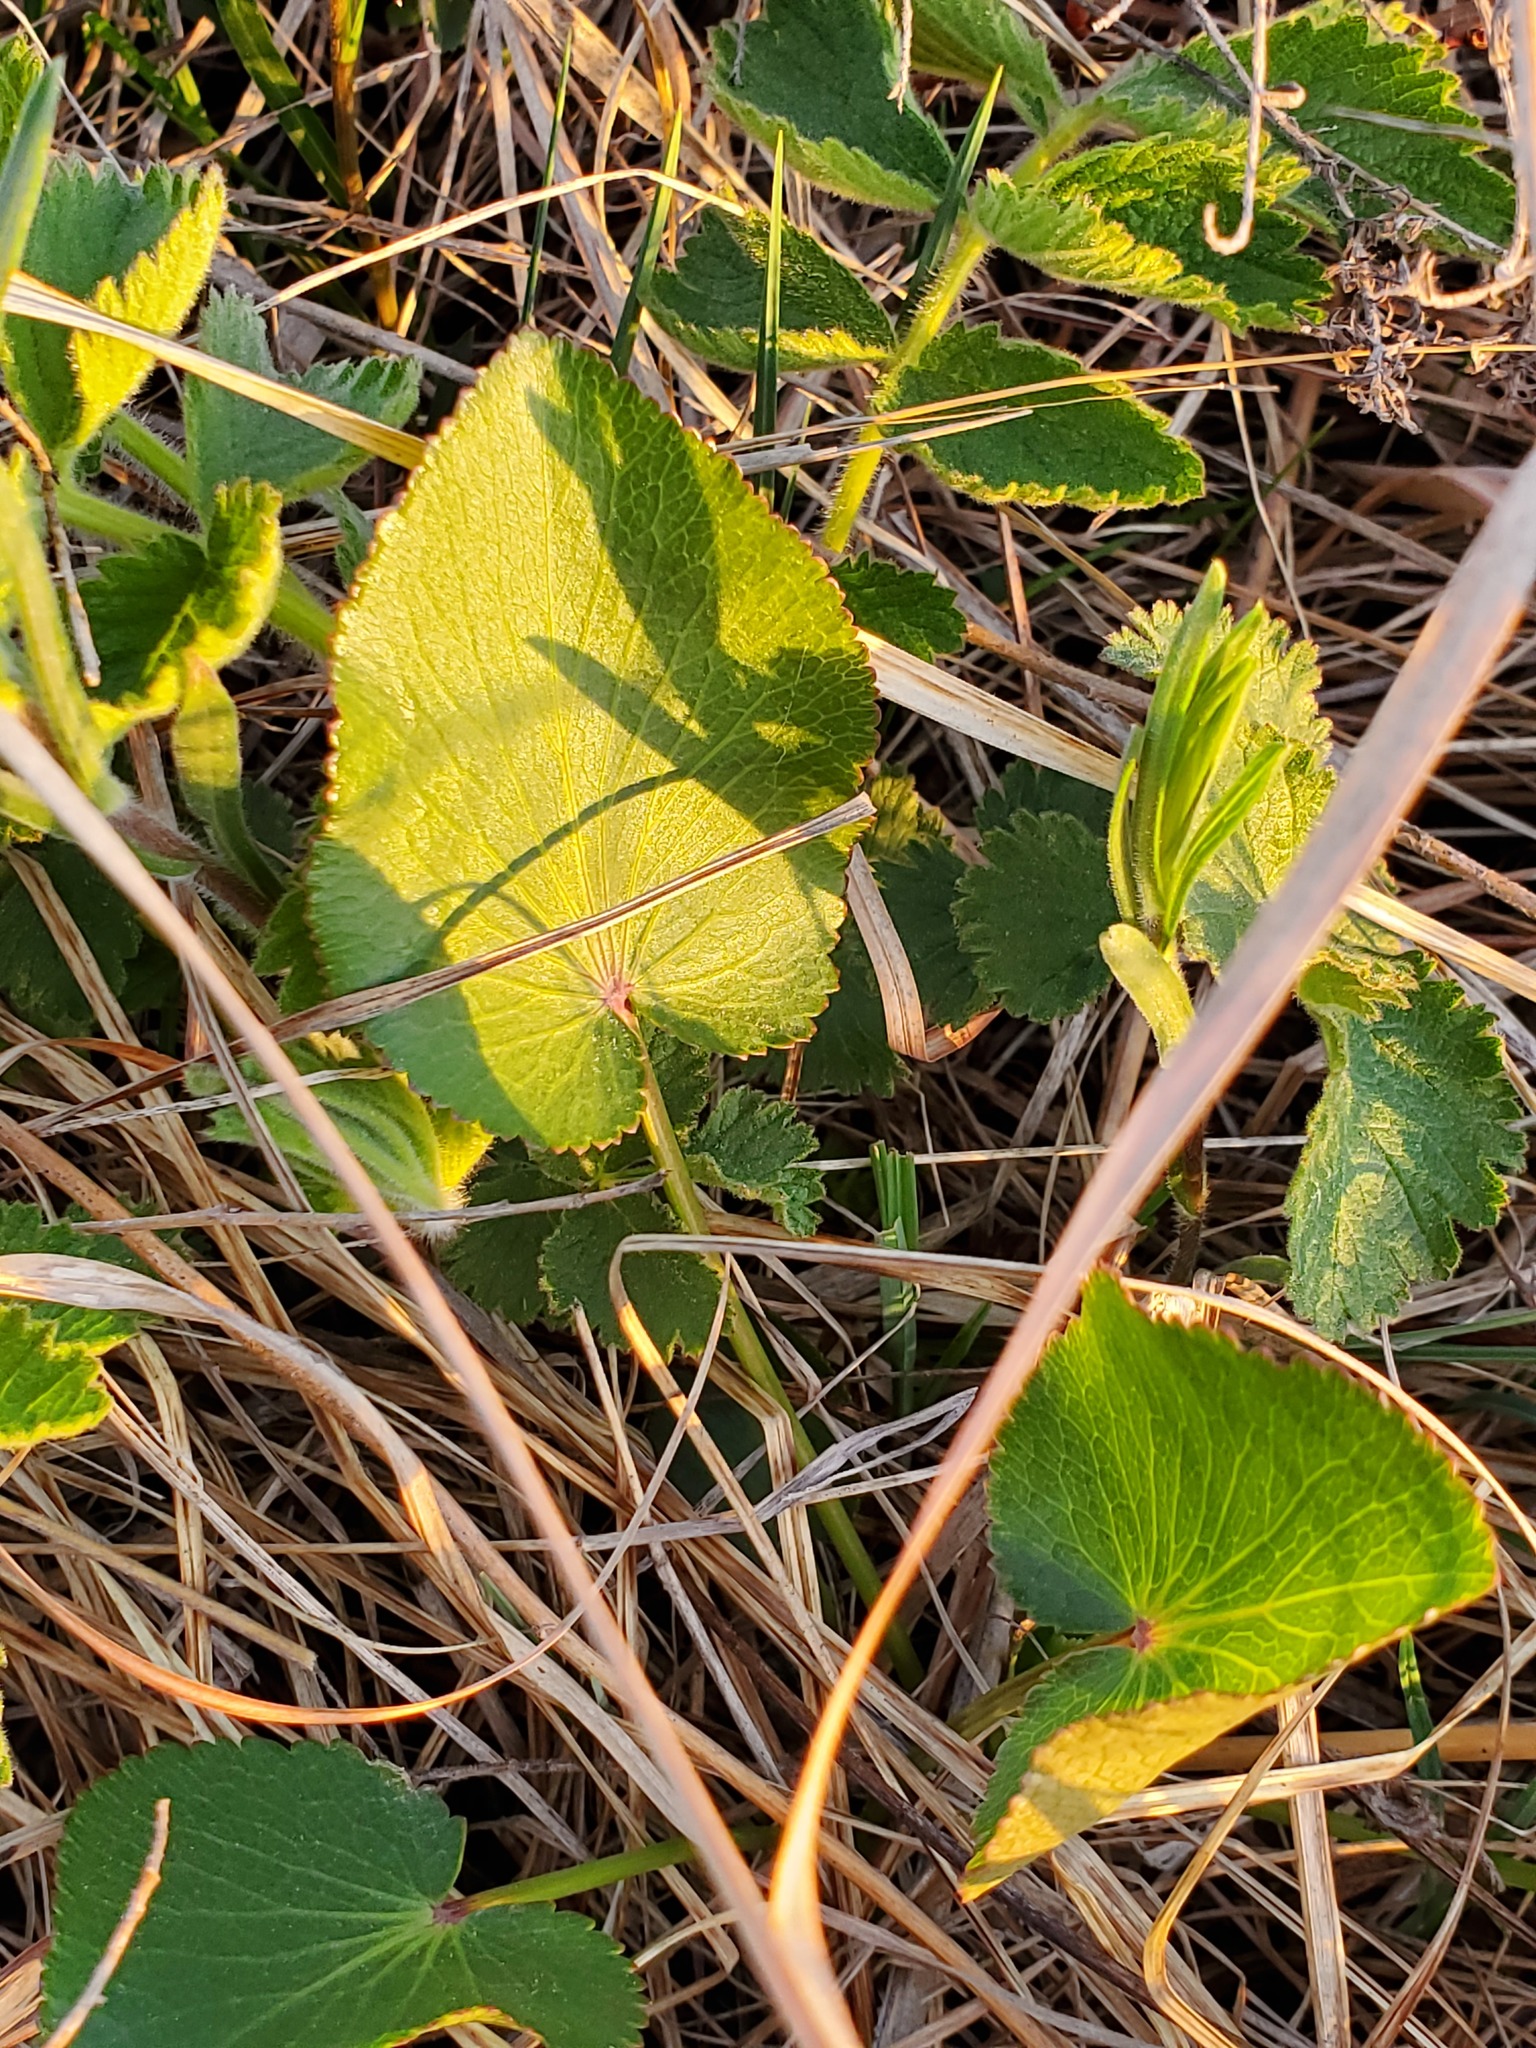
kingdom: Plantae
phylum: Tracheophyta
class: Magnoliopsida
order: Apiales
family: Apiaceae
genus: Zizia
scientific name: Zizia aptera
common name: Heart-leaved alexanders
